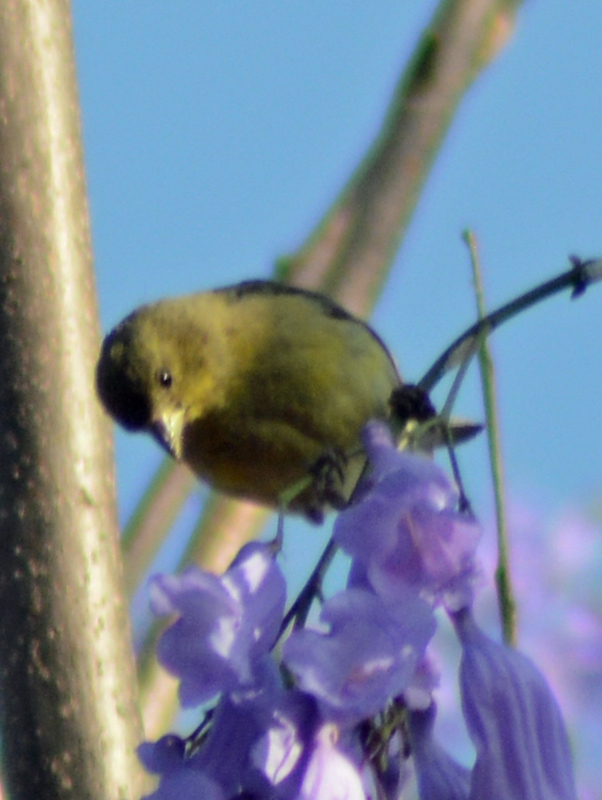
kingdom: Animalia
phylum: Chordata
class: Aves
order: Passeriformes
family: Fringillidae
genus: Spinus
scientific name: Spinus psaltria
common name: Lesser goldfinch
